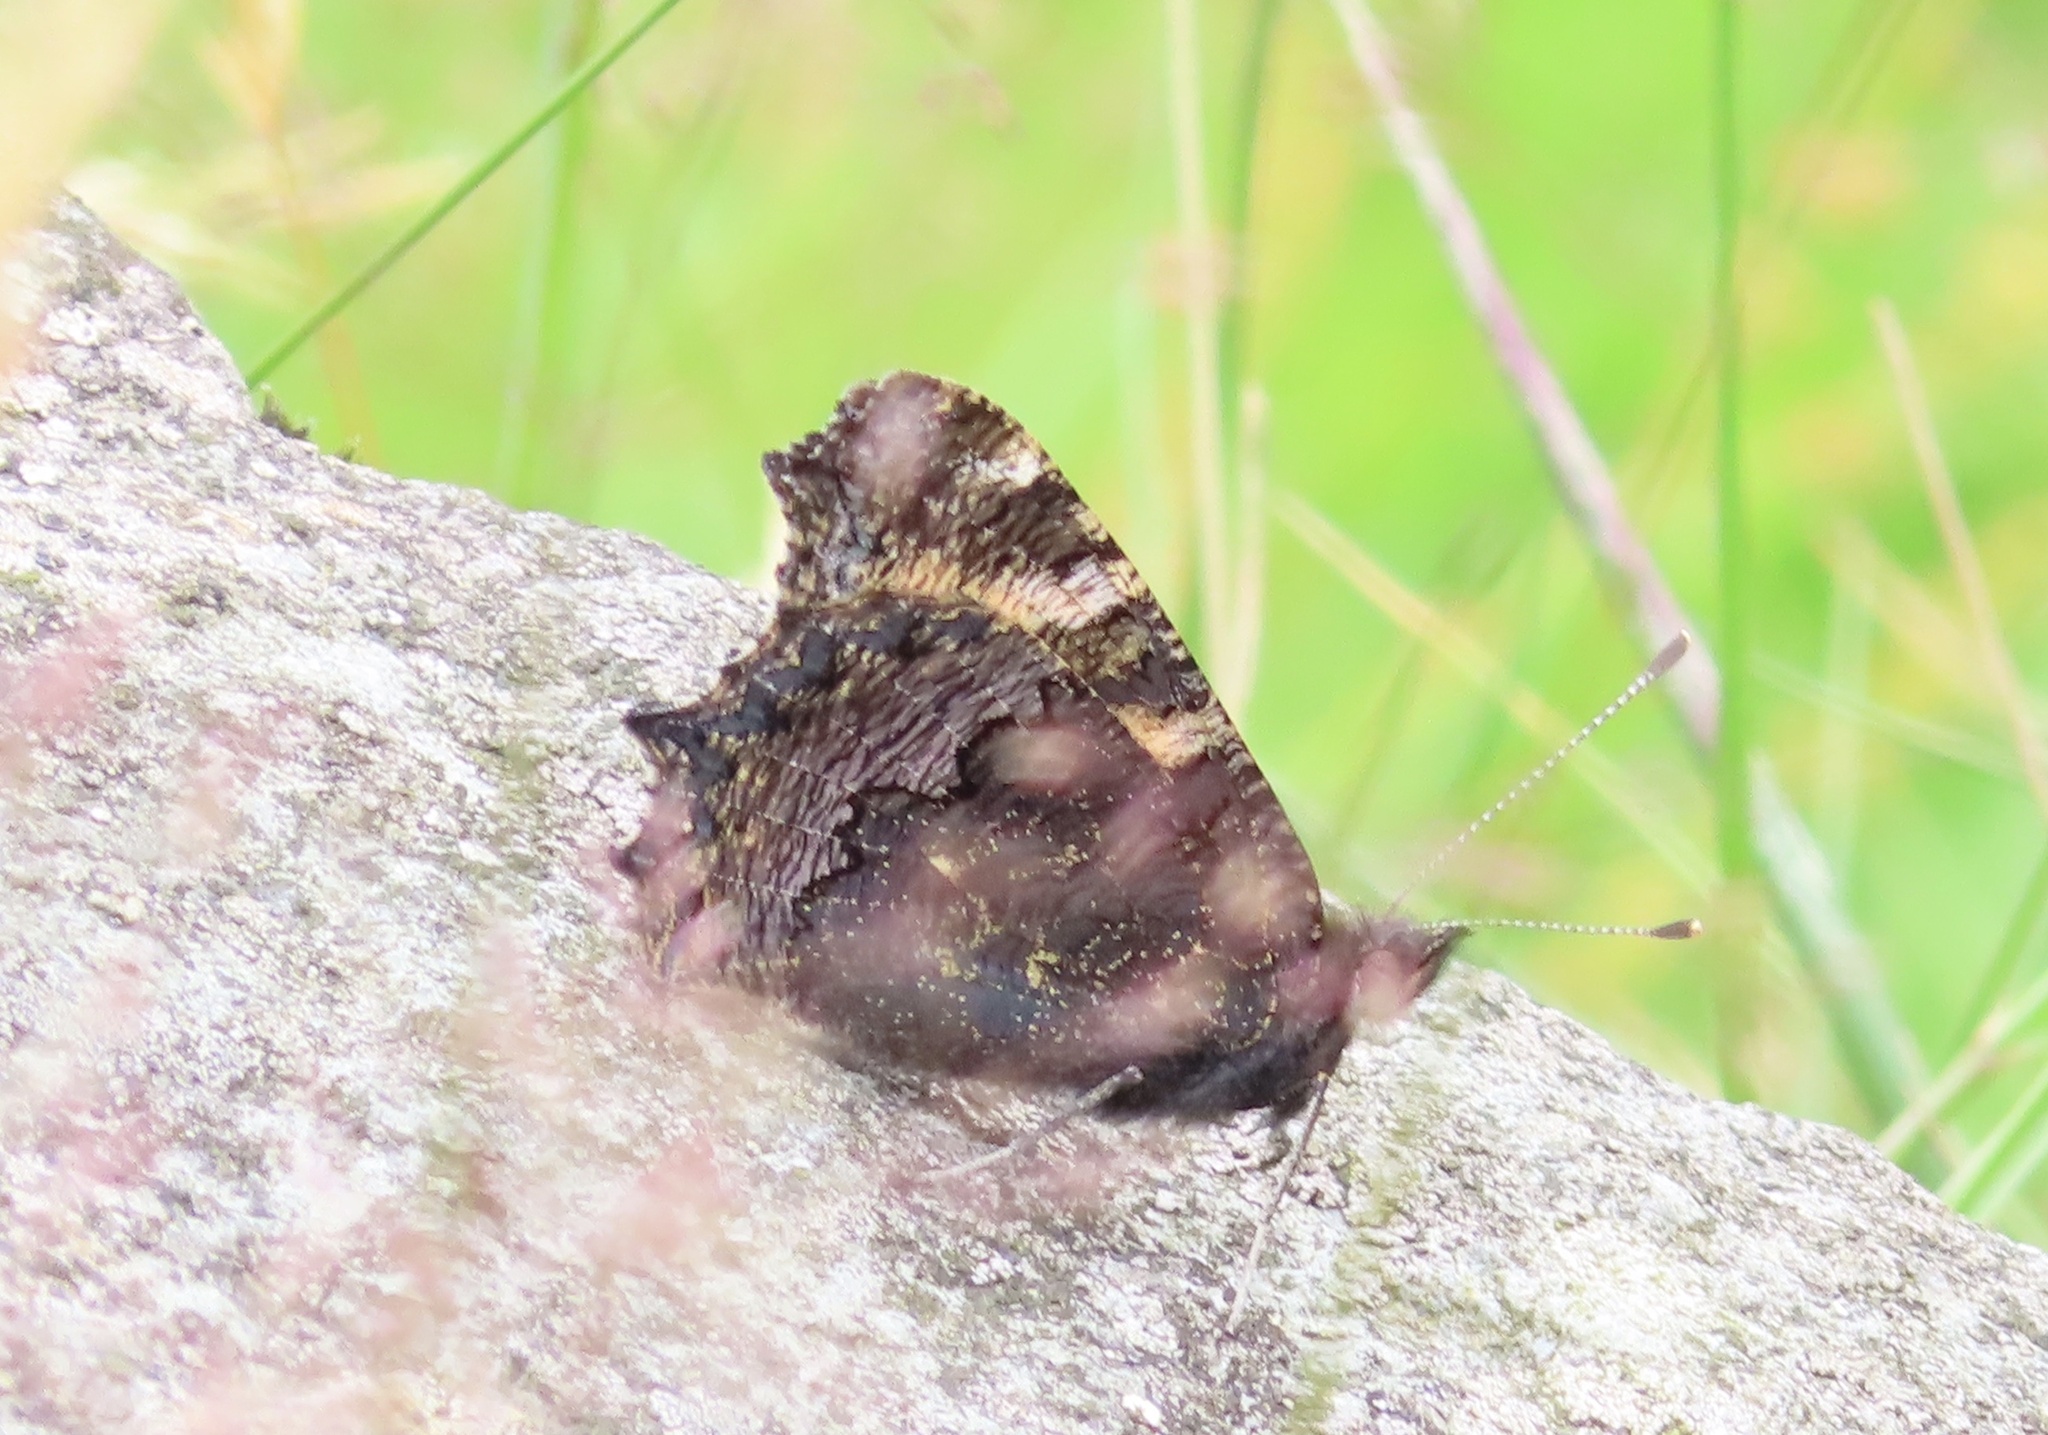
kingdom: Animalia
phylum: Arthropoda
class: Insecta
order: Lepidoptera
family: Nymphalidae
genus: Aglais
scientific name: Aglais urticae
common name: Small tortoiseshell
